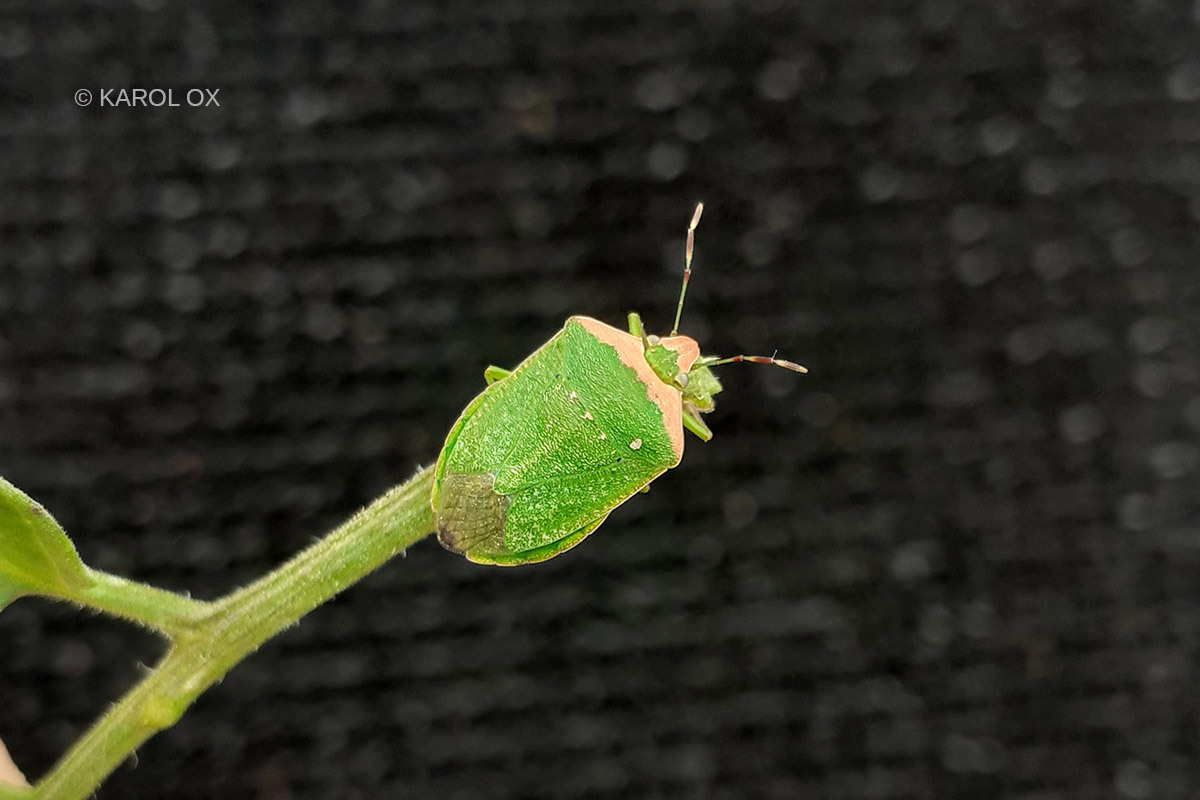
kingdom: Animalia
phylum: Arthropoda
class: Insecta
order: Hemiptera
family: Pentatomidae
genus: Nezara
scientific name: Nezara viridula
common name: Southern green stink bug
